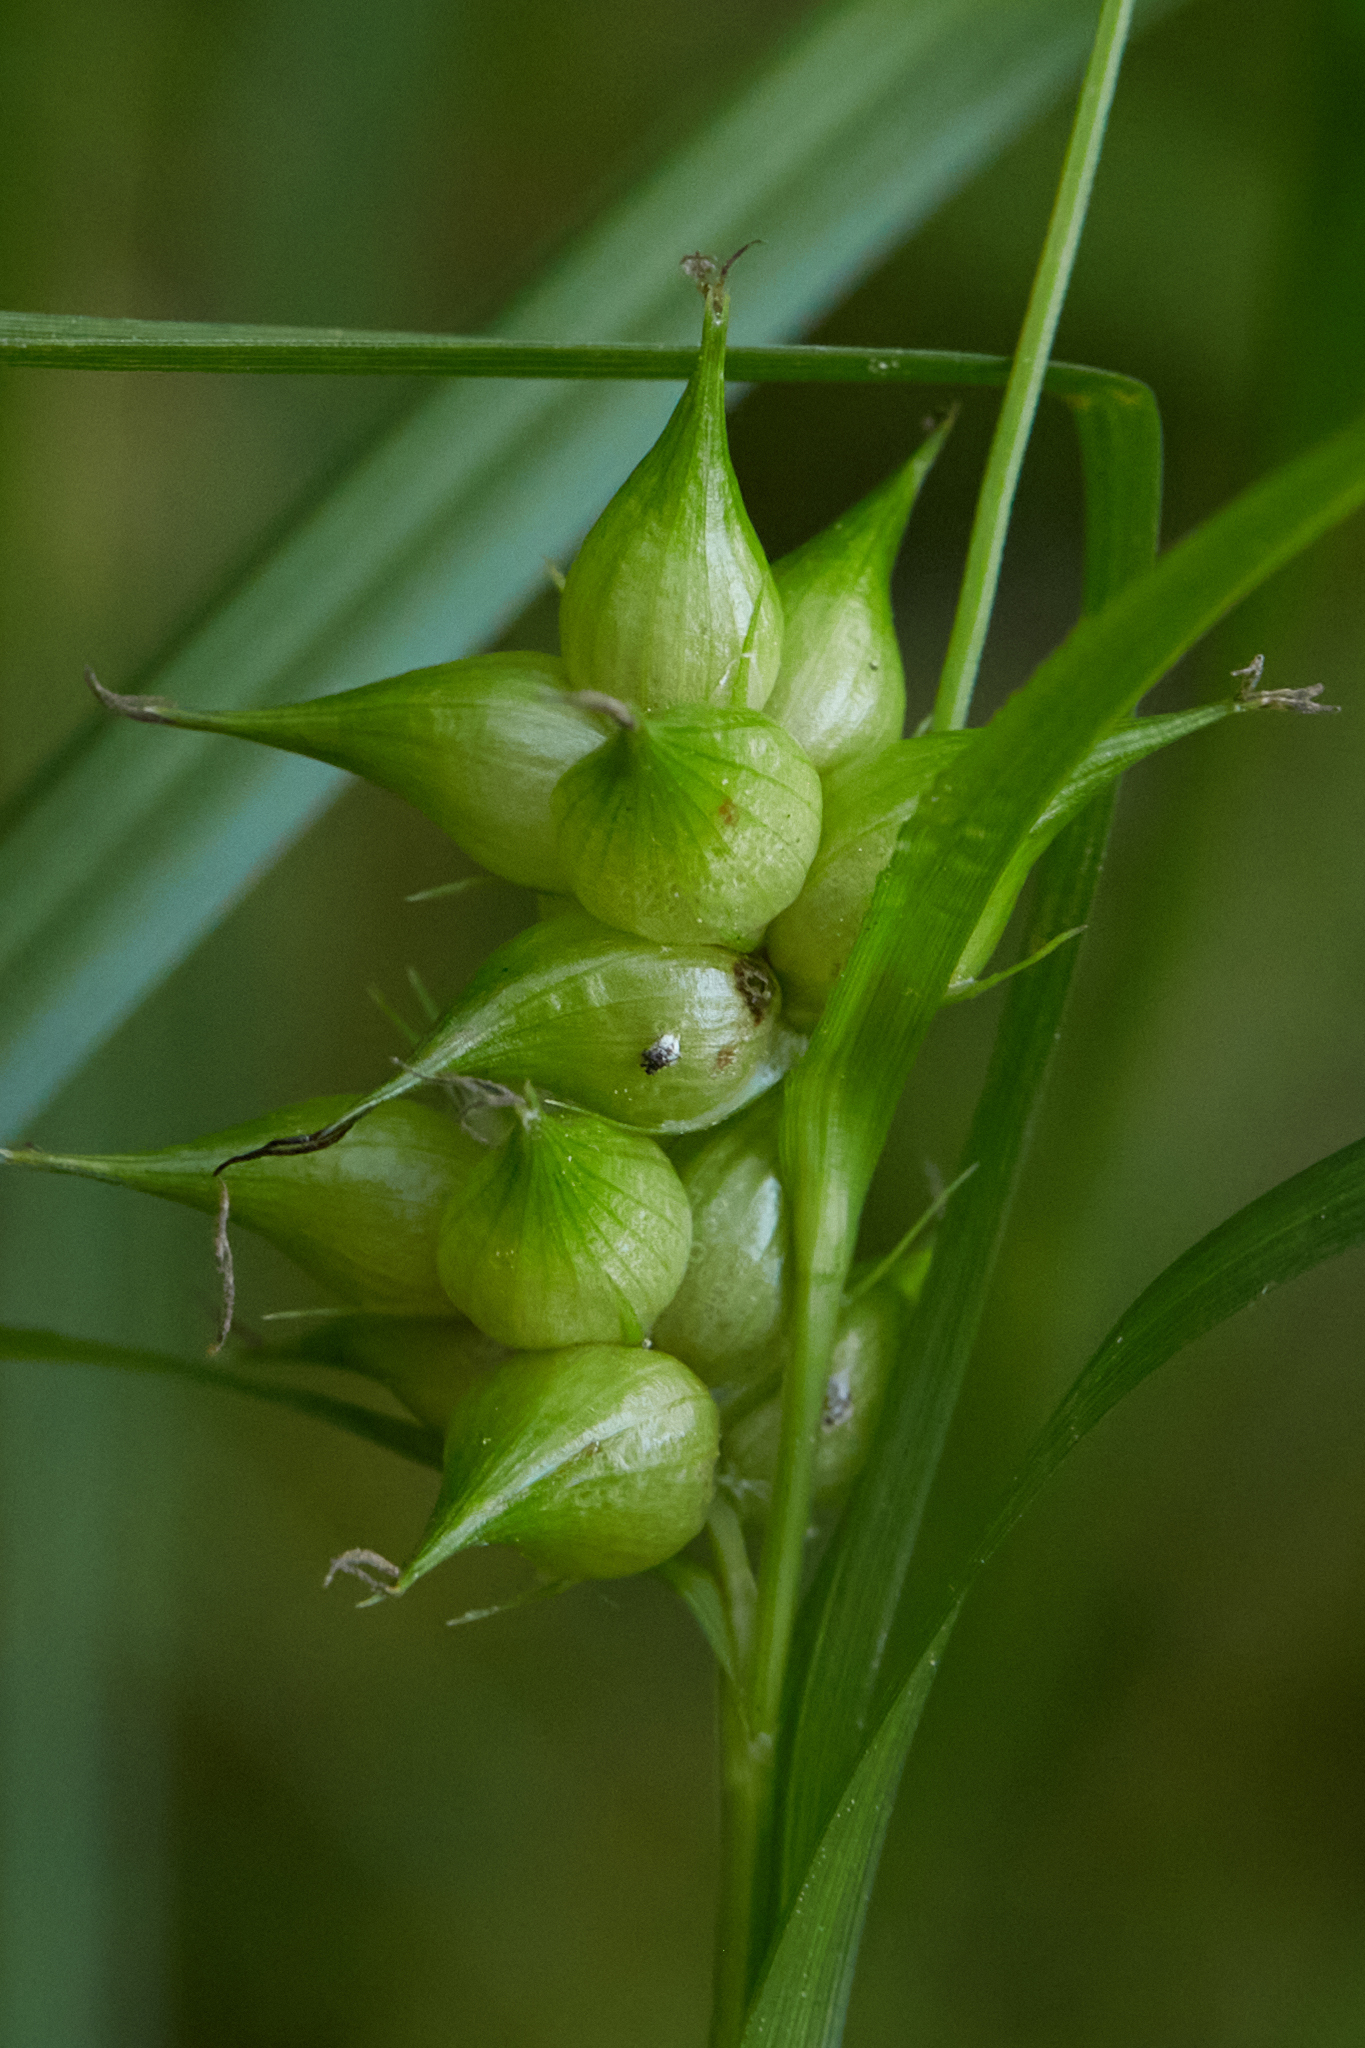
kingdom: Plantae
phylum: Tracheophyta
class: Liliopsida
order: Poales
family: Cyperaceae
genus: Carex
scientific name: Carex intumescens
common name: Greater bladder sedge
